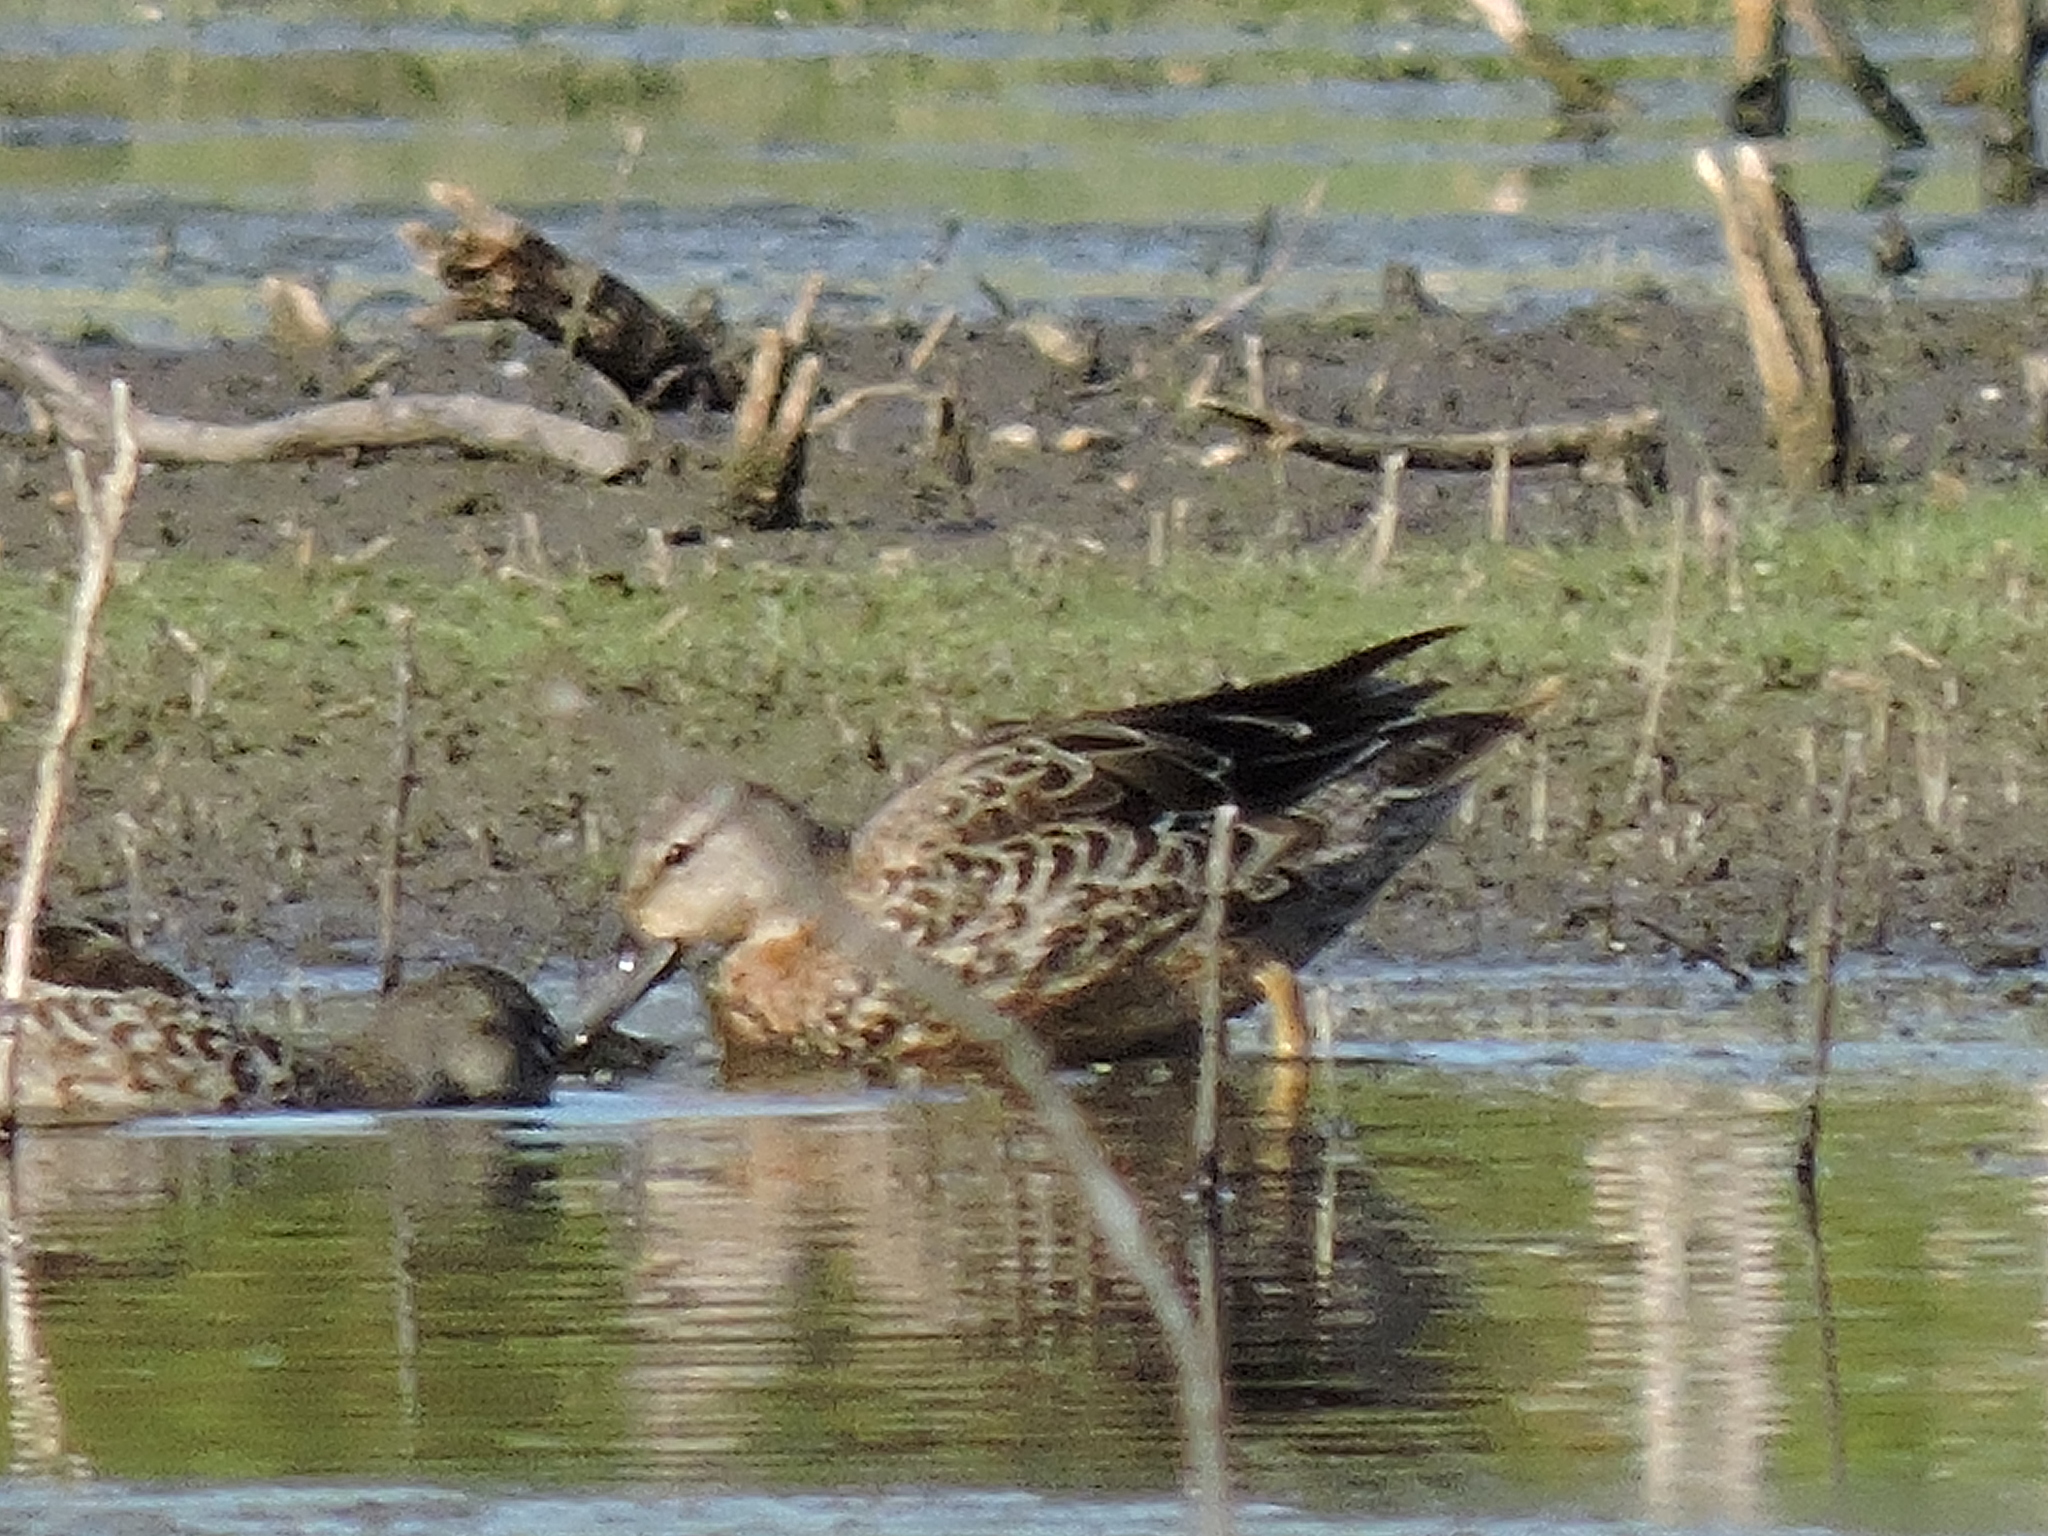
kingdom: Animalia
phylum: Chordata
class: Aves
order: Anseriformes
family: Anatidae
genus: Spatula
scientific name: Spatula discors
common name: Blue-winged teal
